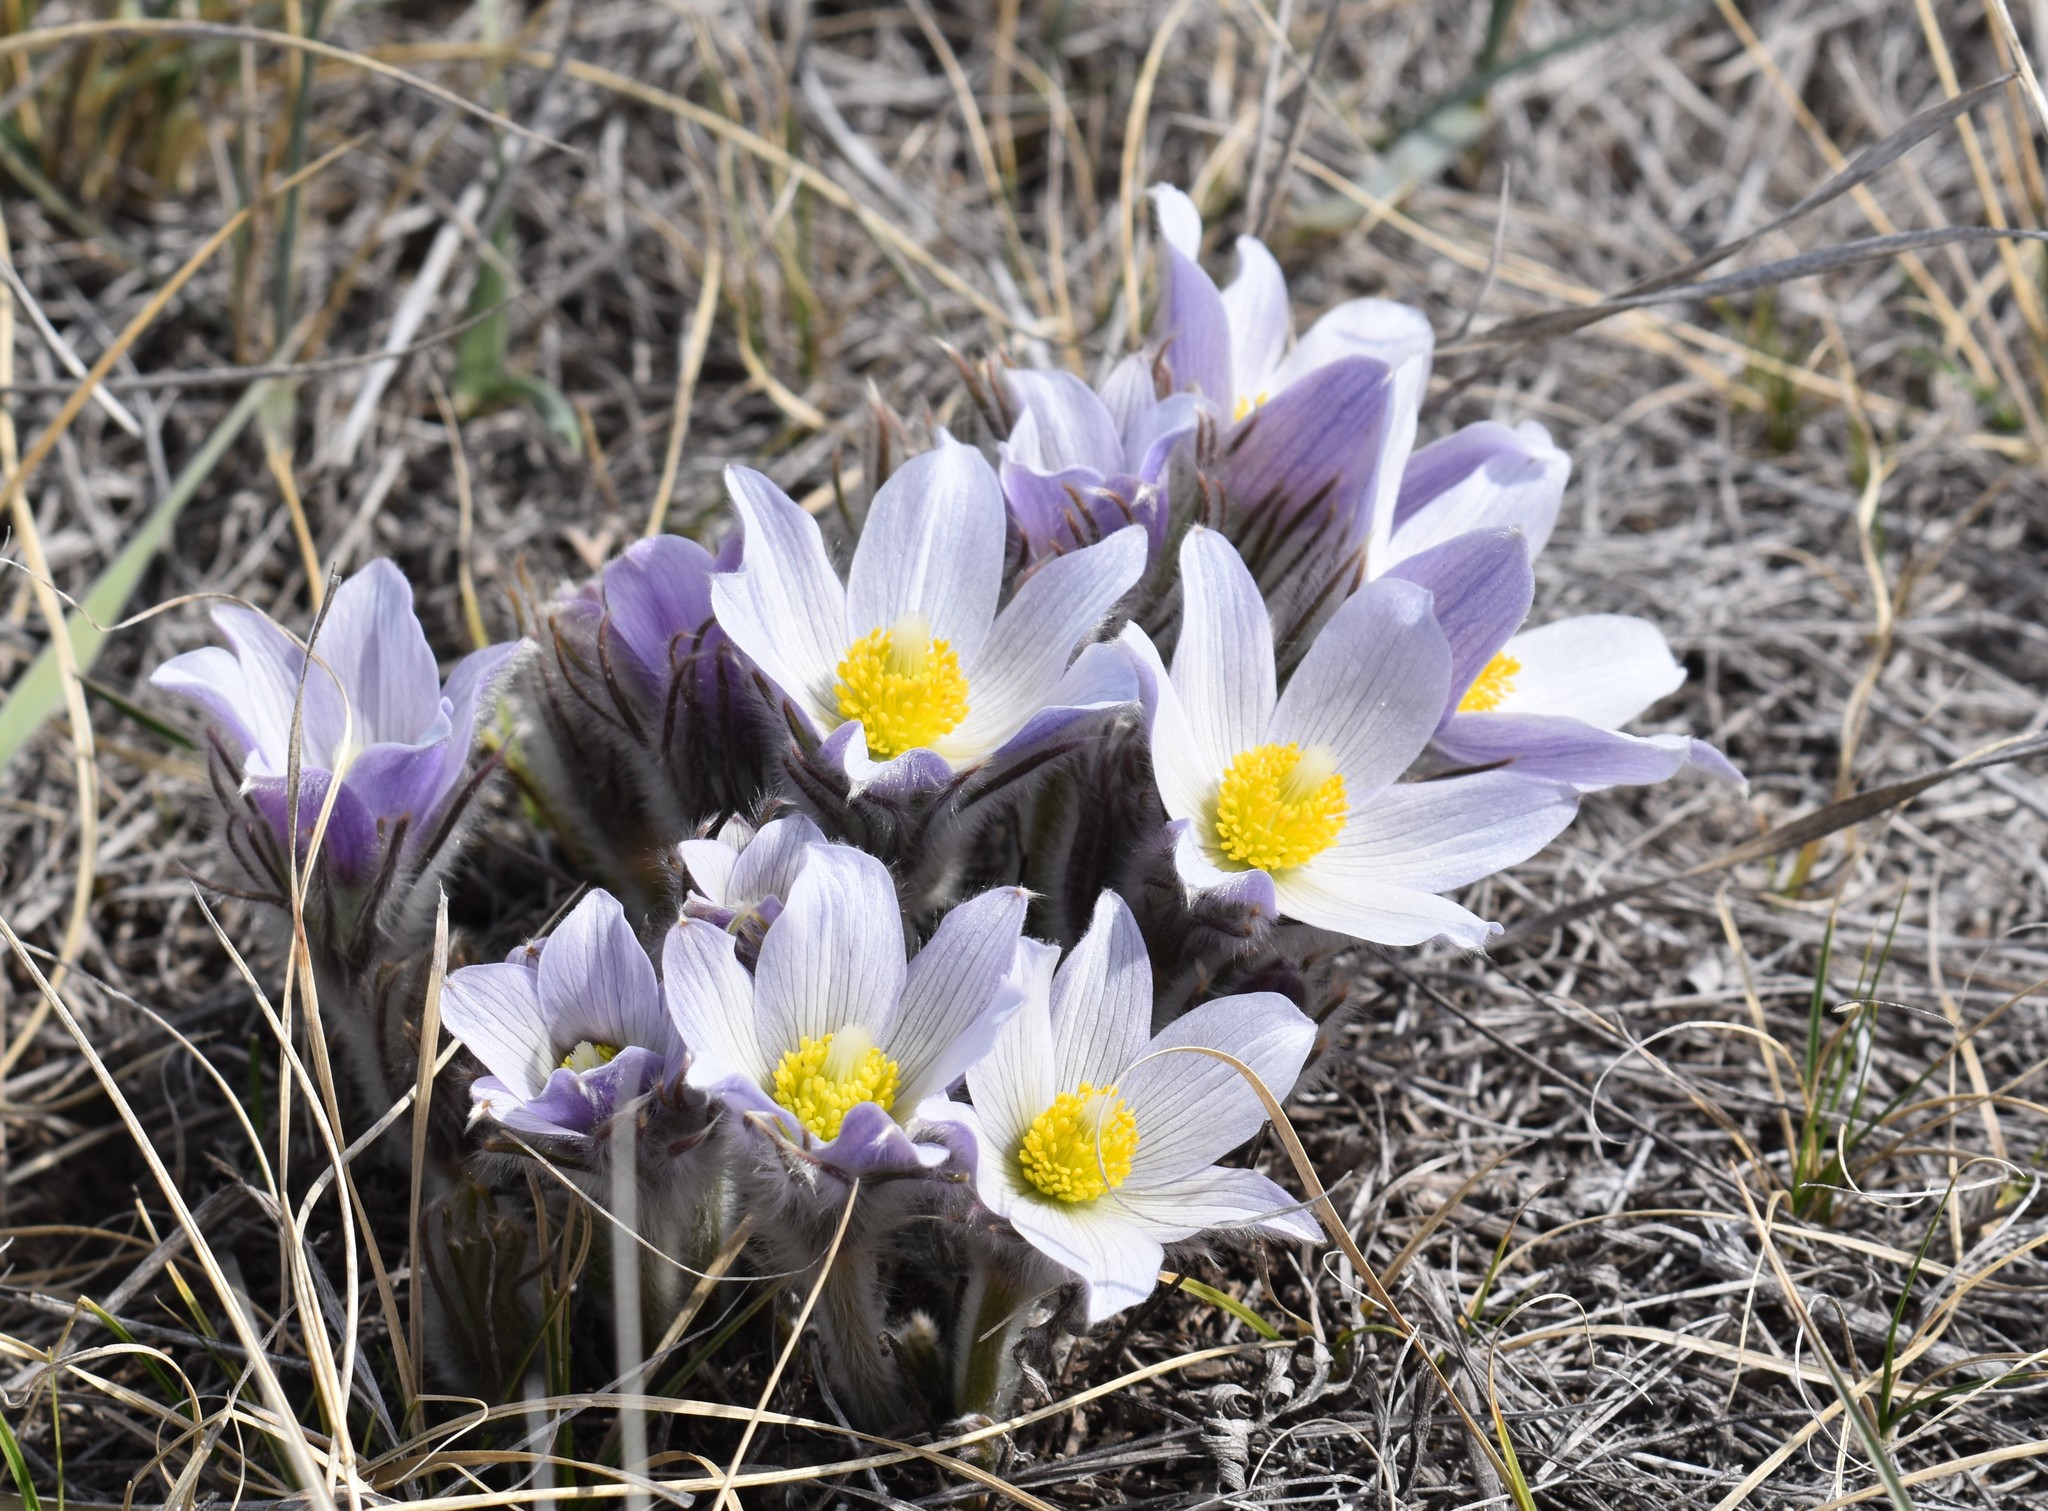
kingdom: Plantae
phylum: Tracheophyta
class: Magnoliopsida
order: Ranunculales
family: Ranunculaceae
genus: Pulsatilla
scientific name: Pulsatilla nuttalliana
